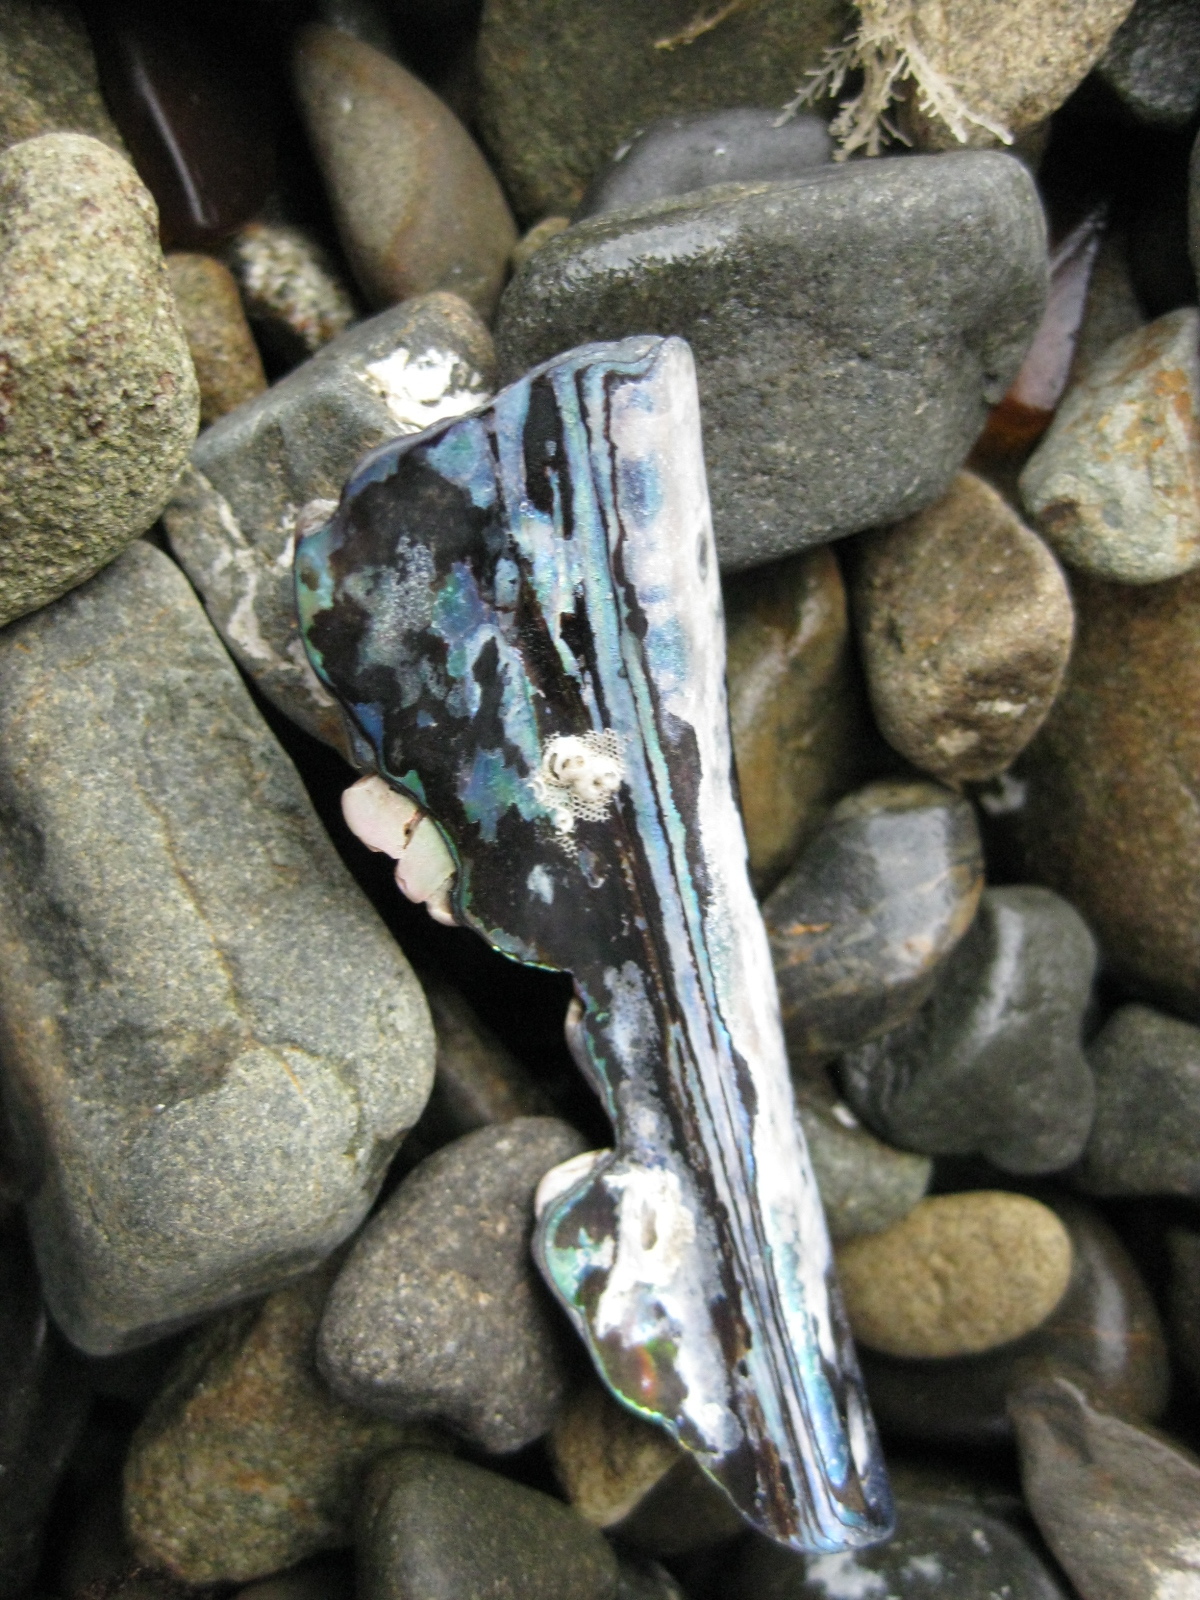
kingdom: Animalia
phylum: Mollusca
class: Gastropoda
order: Lepetellida
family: Haliotidae
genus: Haliotis
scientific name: Haliotis iris
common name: Abalone
